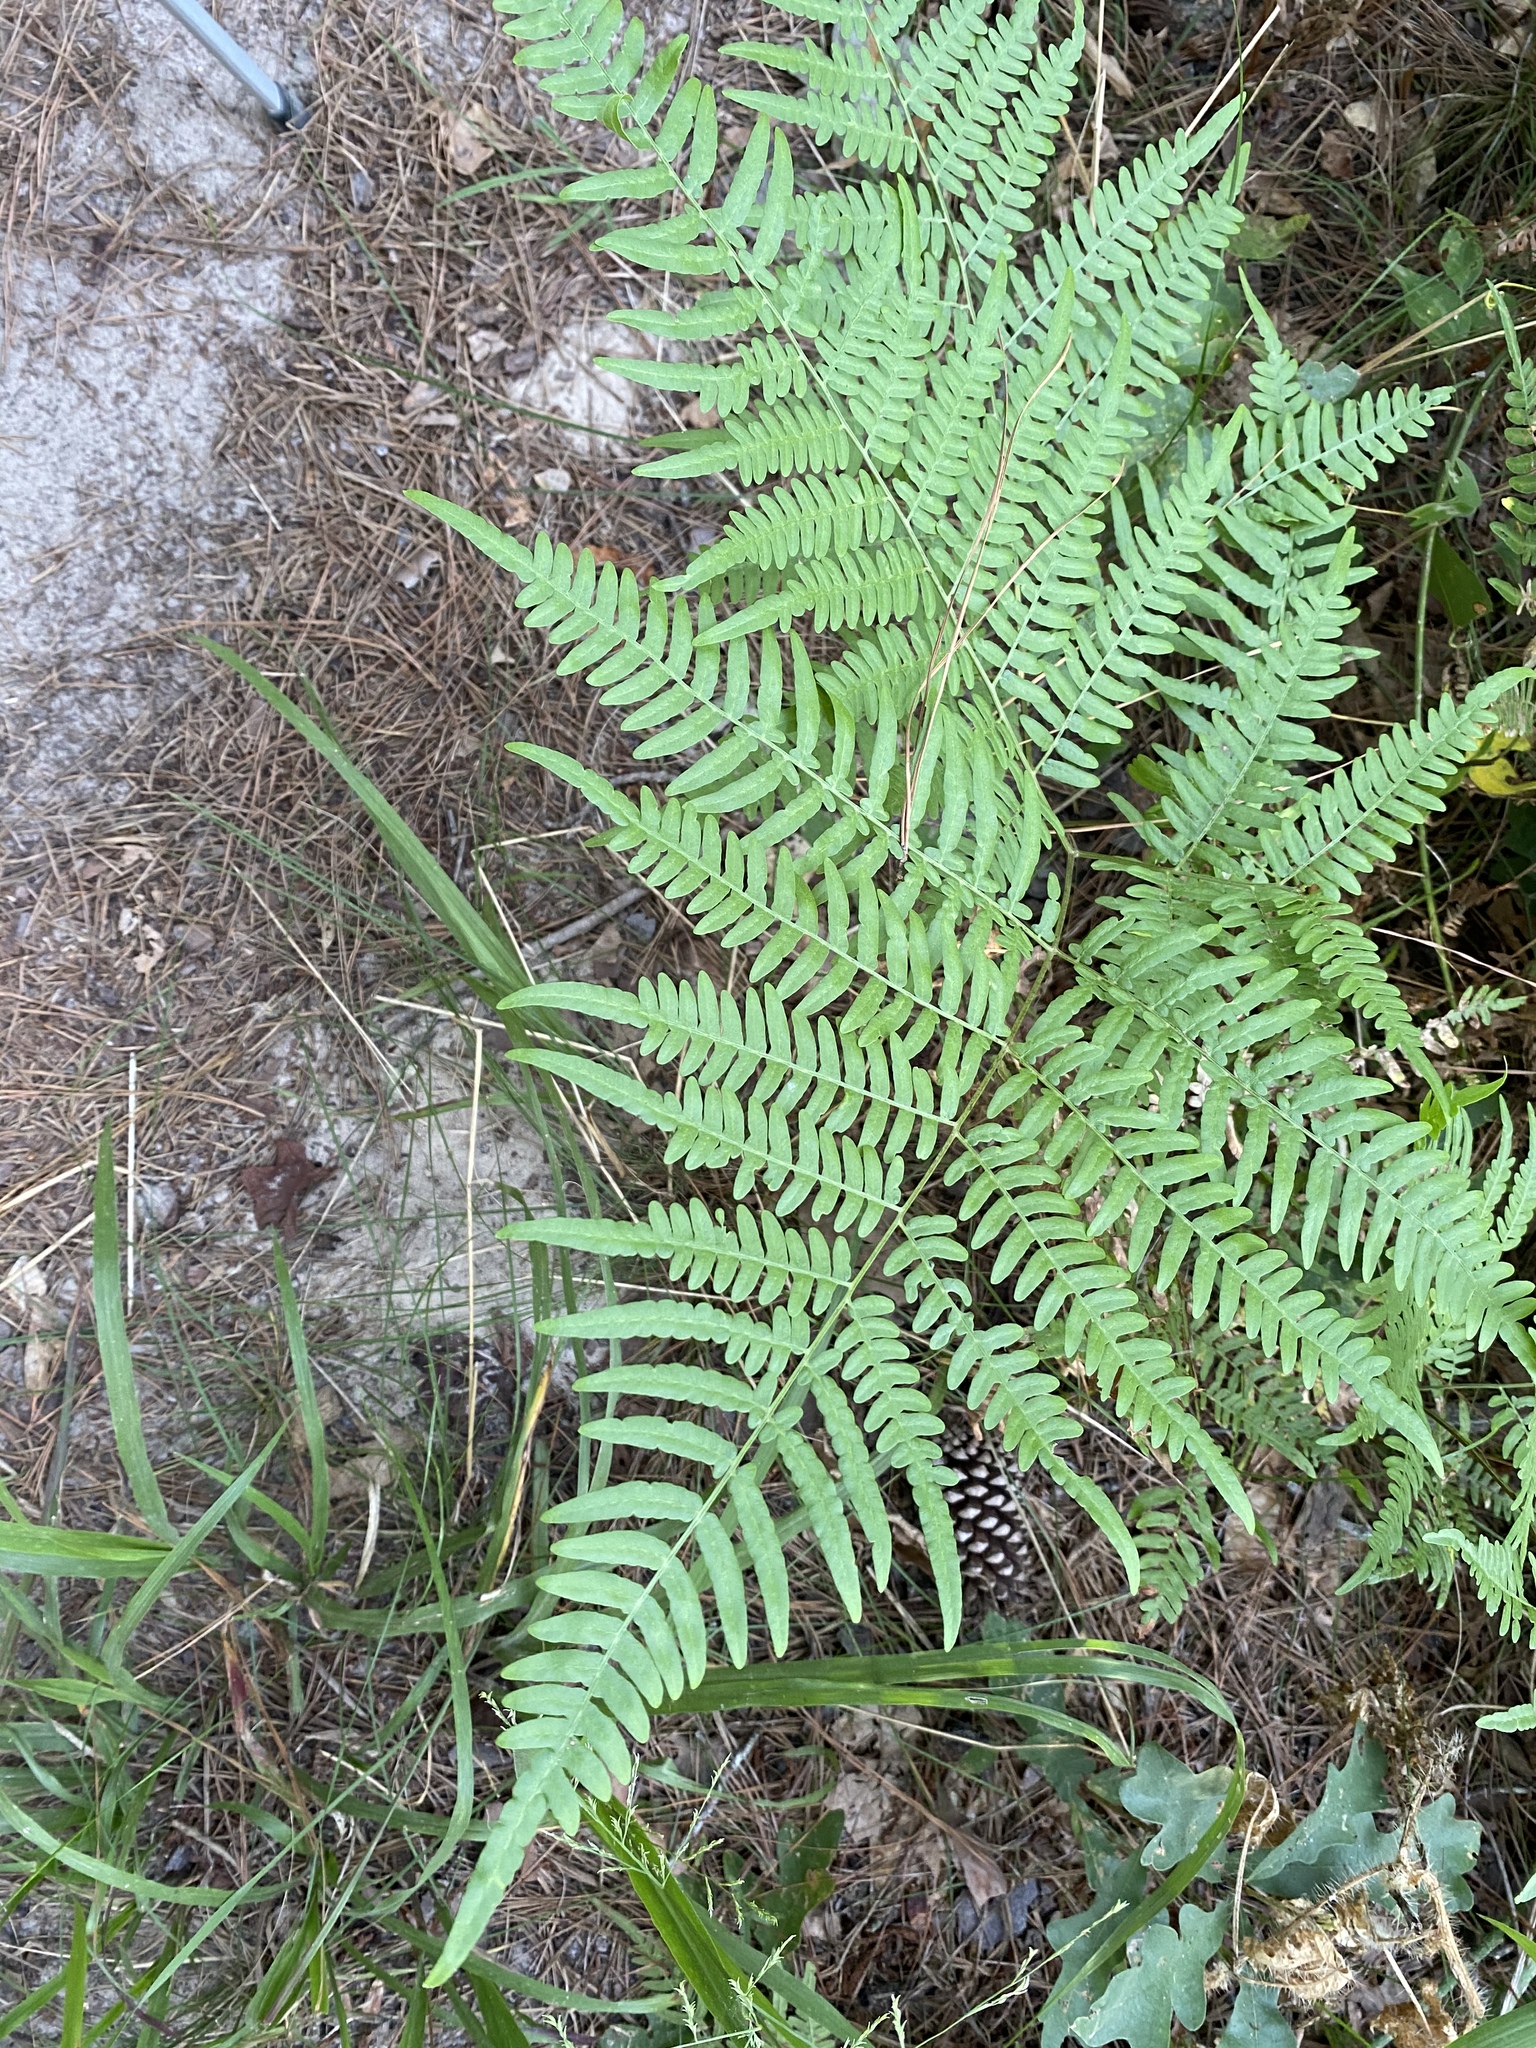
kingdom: Plantae
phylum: Tracheophyta
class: Polypodiopsida
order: Polypodiales
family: Dennstaedtiaceae
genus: Pteridium
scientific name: Pteridium aquilinum
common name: Bracken
